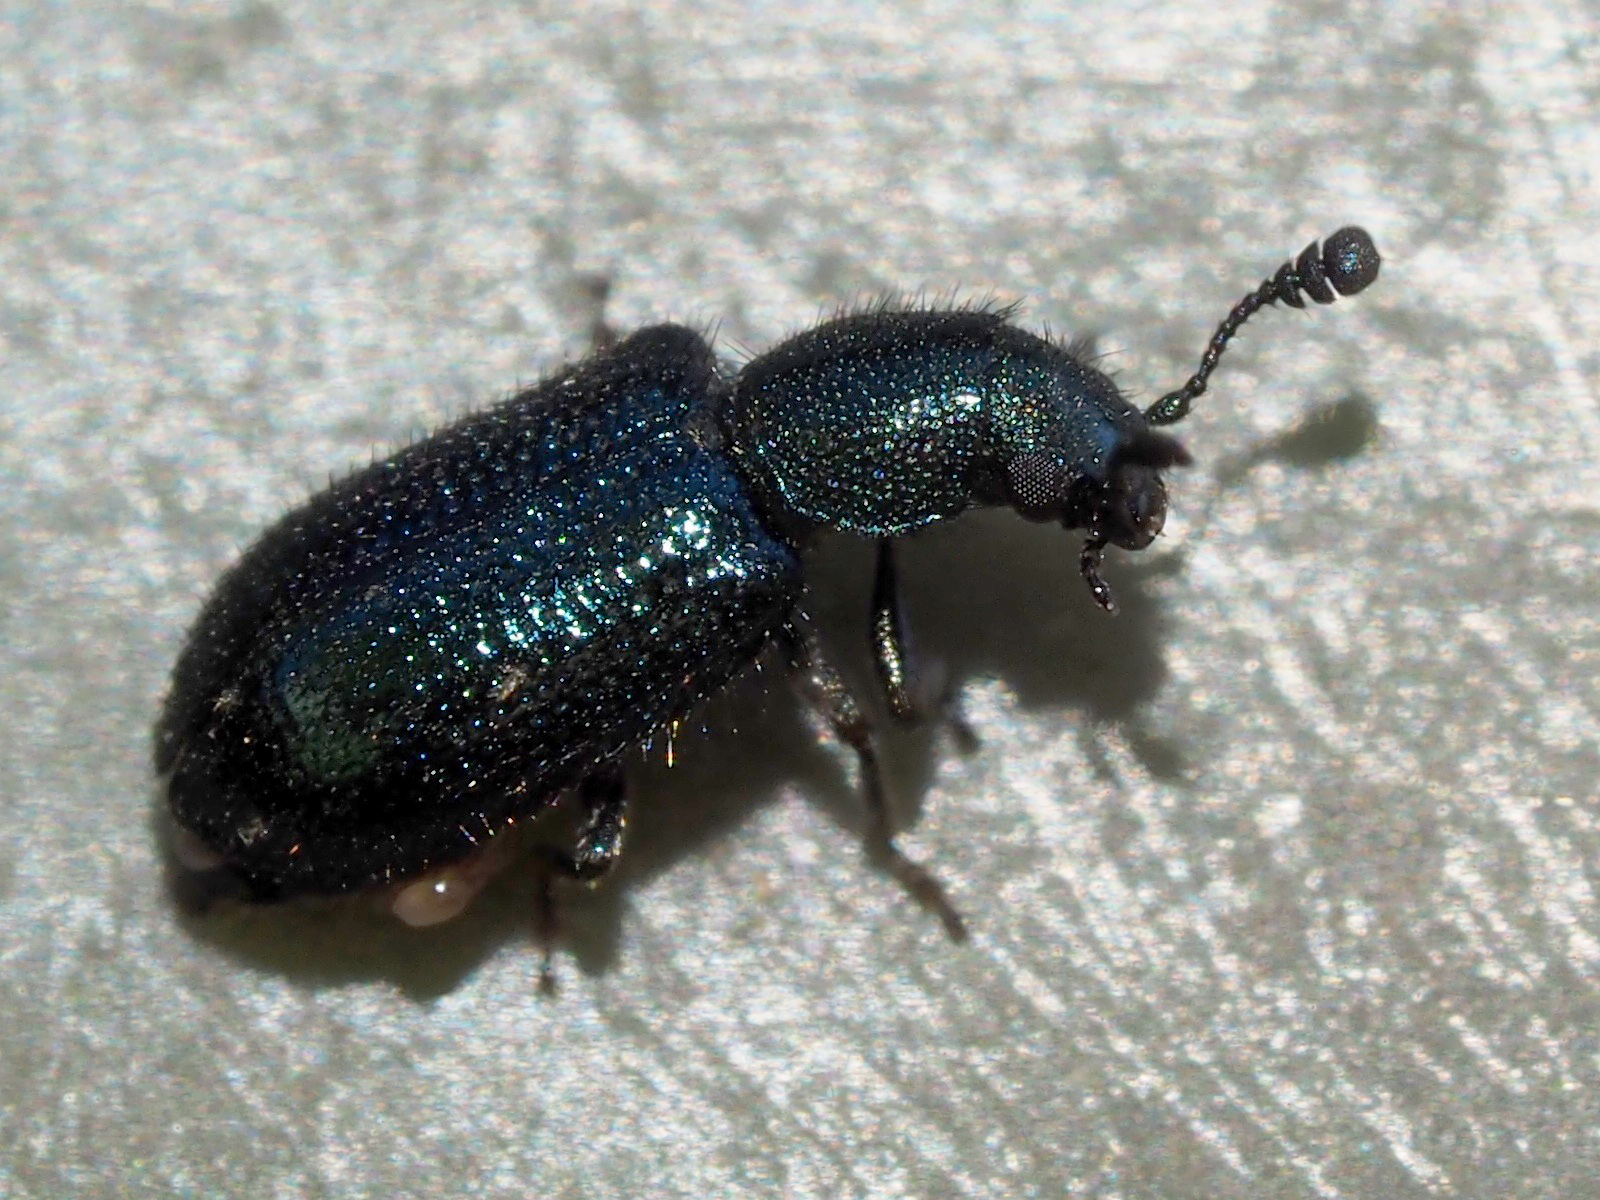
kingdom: Animalia
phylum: Arthropoda
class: Insecta
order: Coleoptera
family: Cleridae
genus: Necrobia
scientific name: Necrobia violacea
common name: Violet checkered beetle
